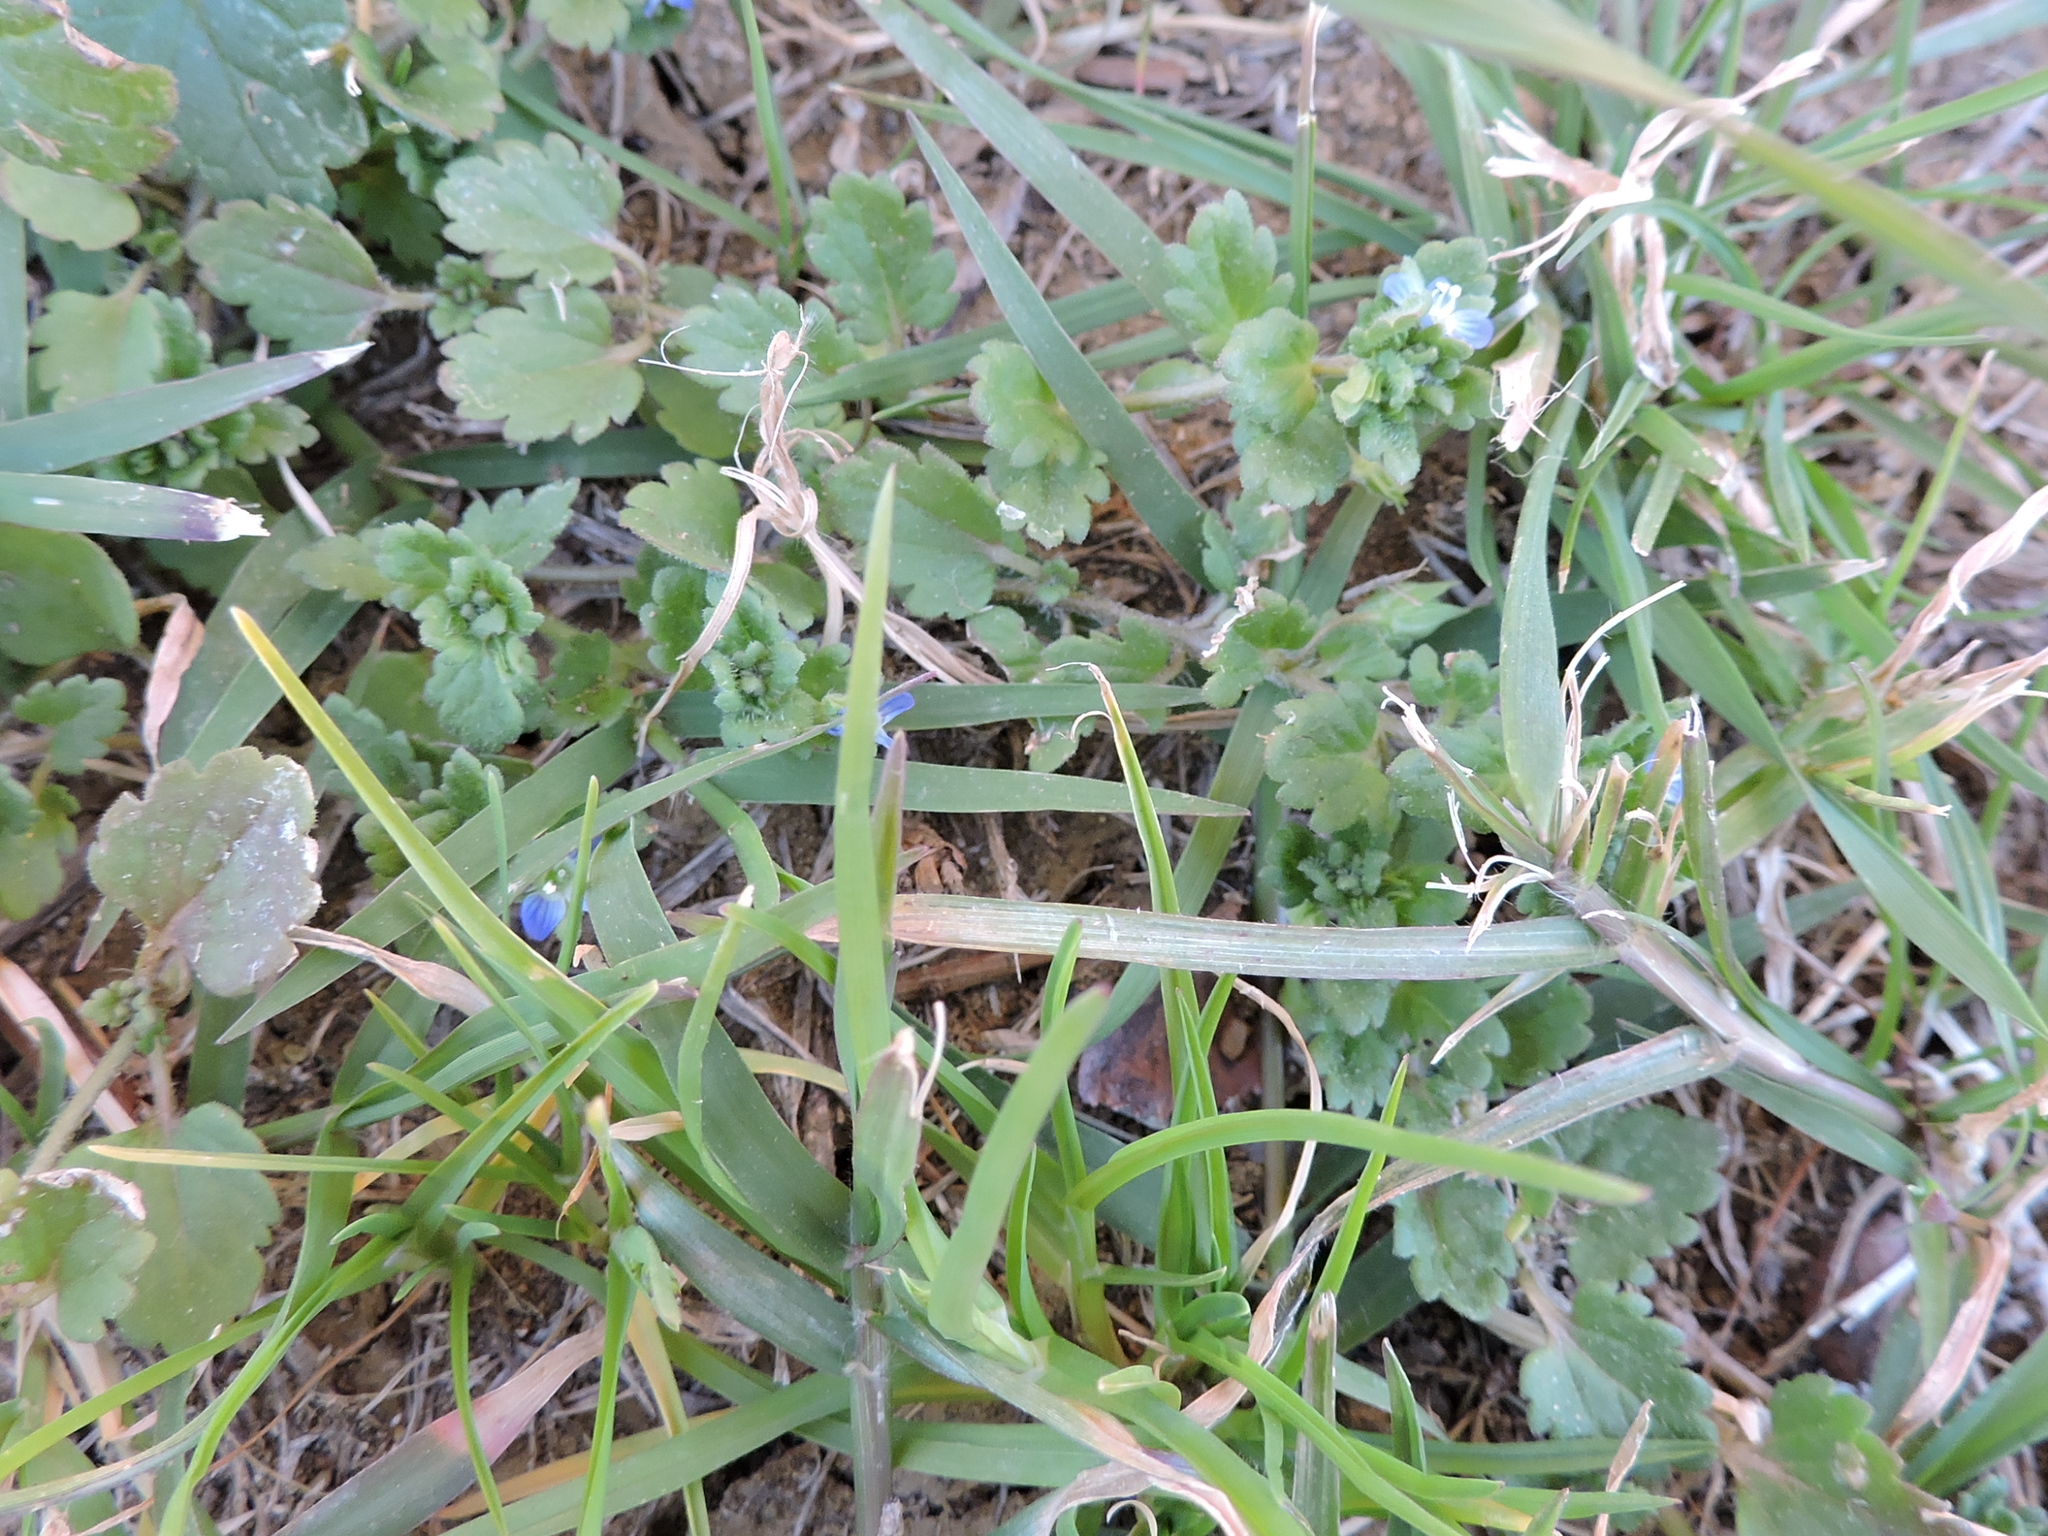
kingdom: Plantae
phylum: Tracheophyta
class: Magnoliopsida
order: Lamiales
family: Plantaginaceae
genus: Veronica
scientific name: Veronica polita
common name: Grey field-speedwell
